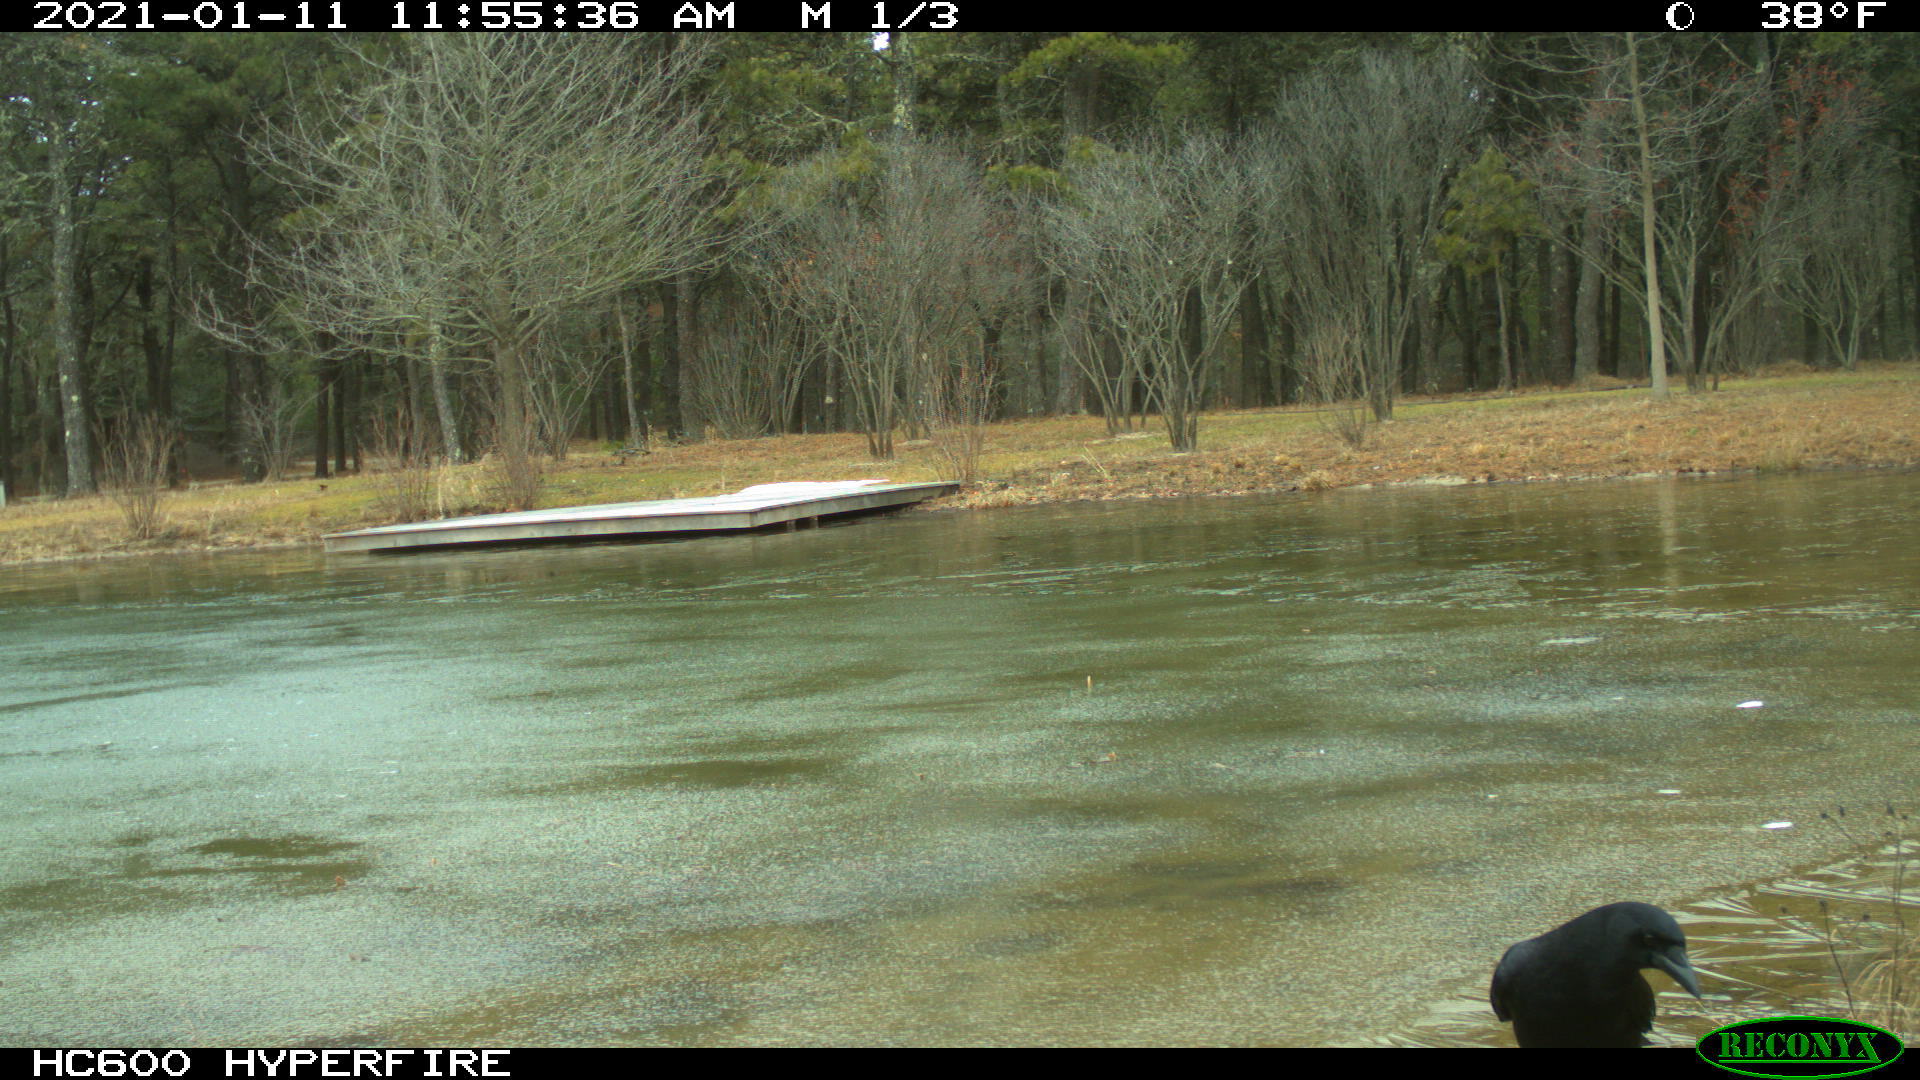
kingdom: Animalia
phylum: Chordata
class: Aves
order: Passeriformes
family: Corvidae
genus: Corvus
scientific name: Corvus brachyrhynchos
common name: American crow
